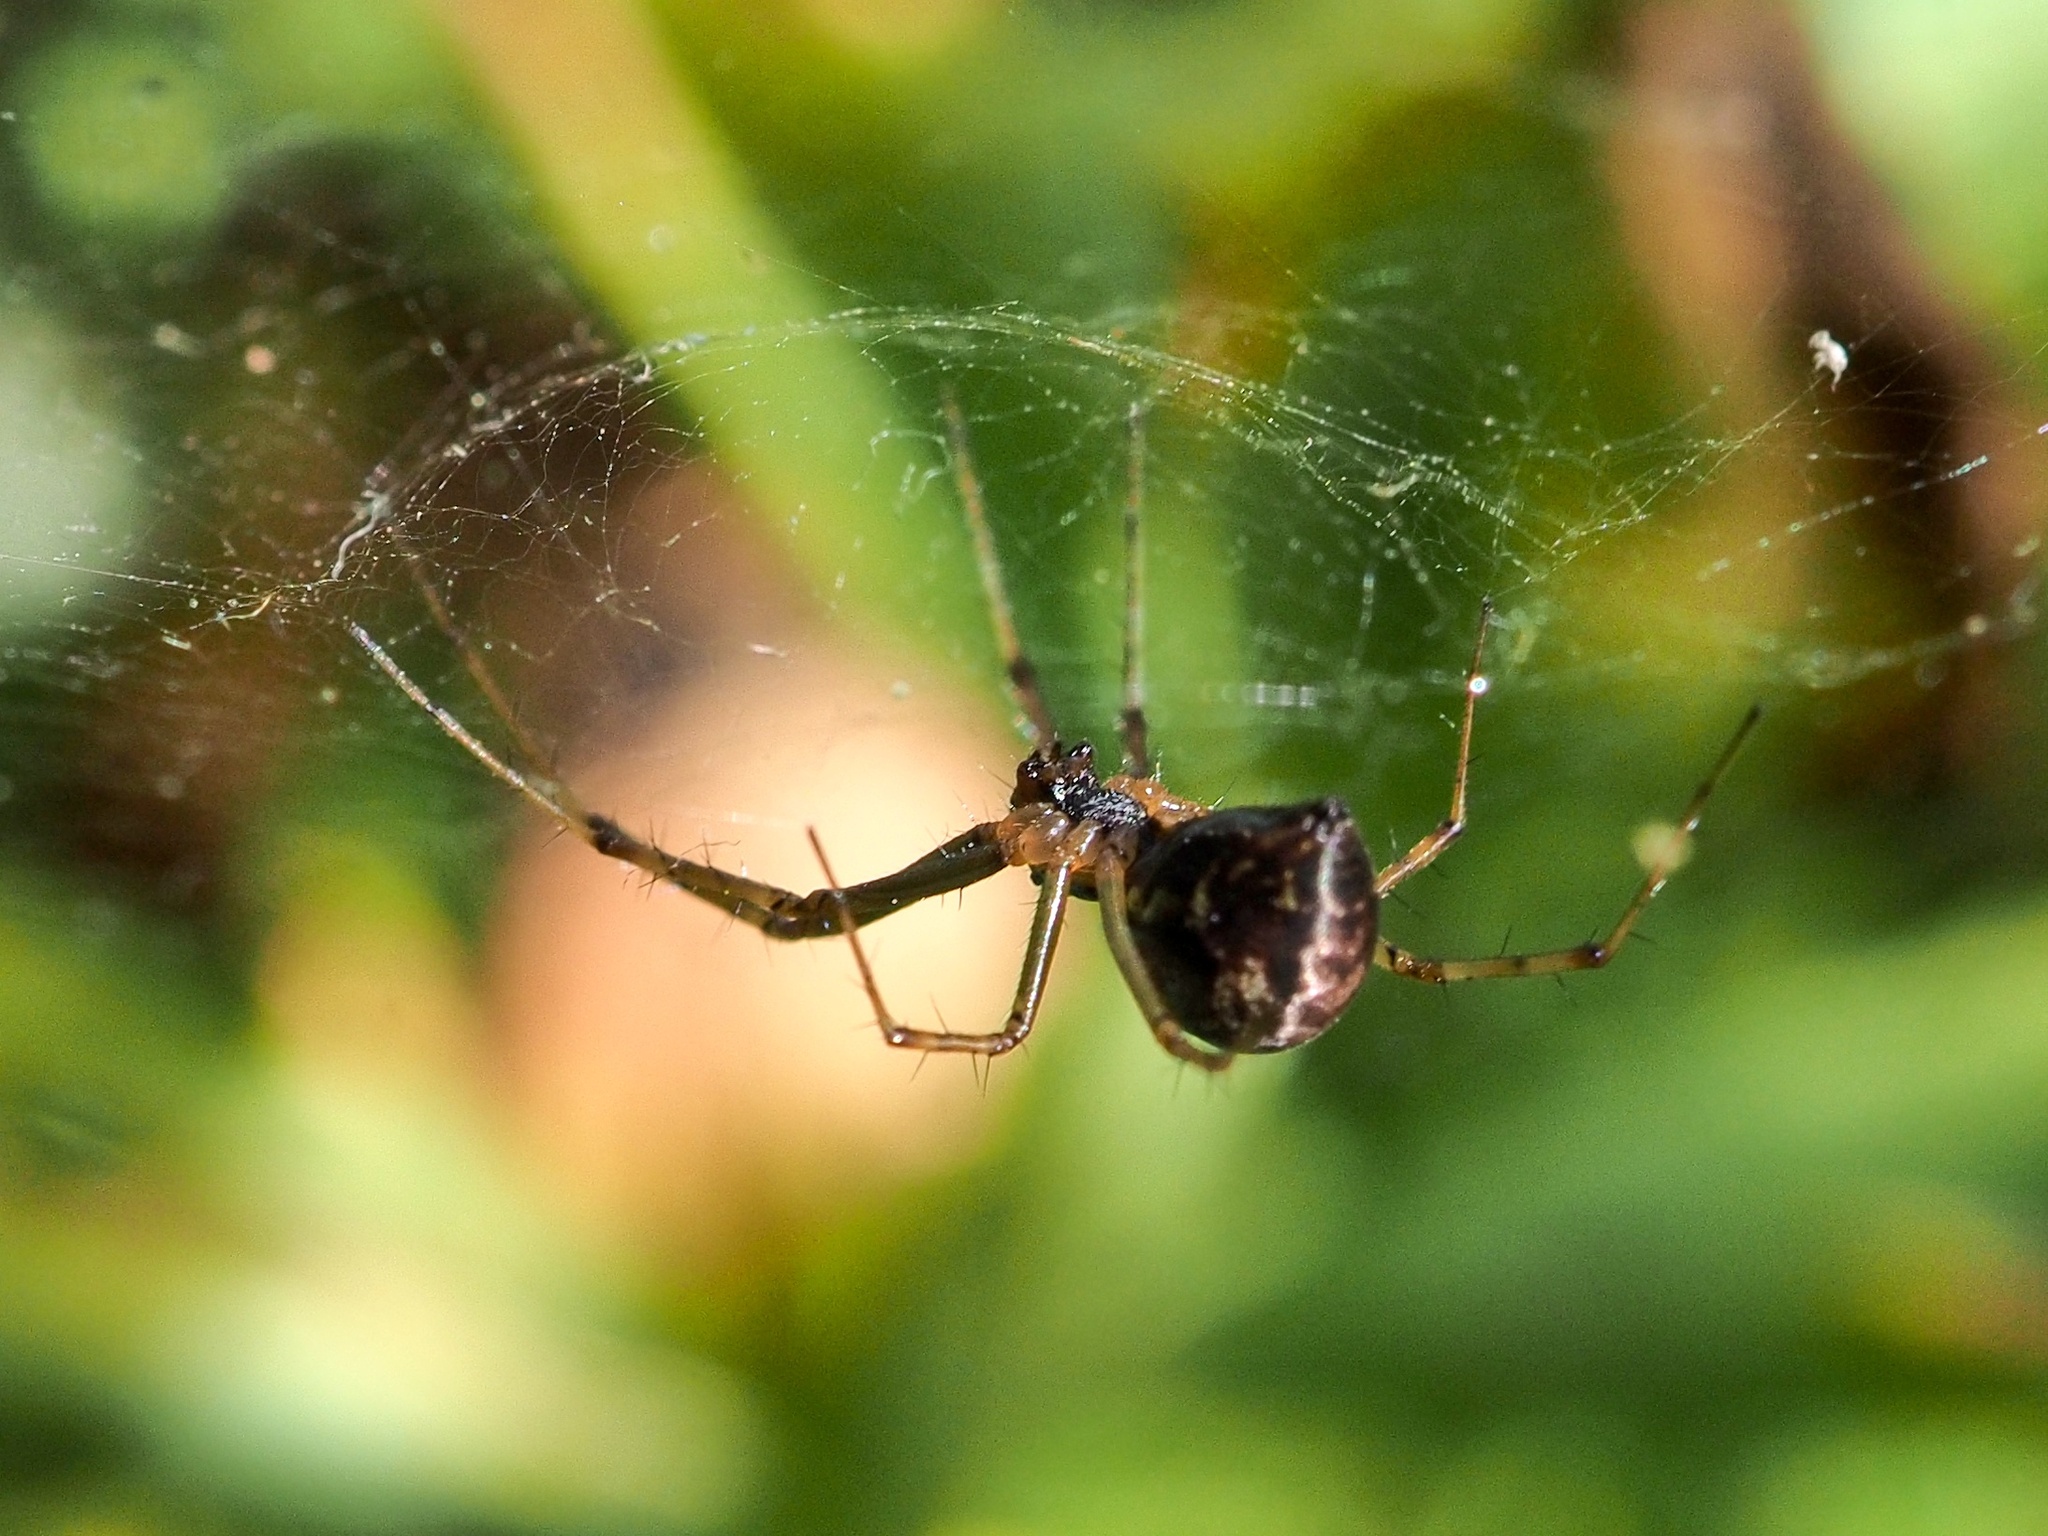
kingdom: Animalia
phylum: Arthropoda
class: Arachnida
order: Araneae
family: Linyphiidae
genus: Linyphia
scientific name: Linyphia triangularis
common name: Money spider
